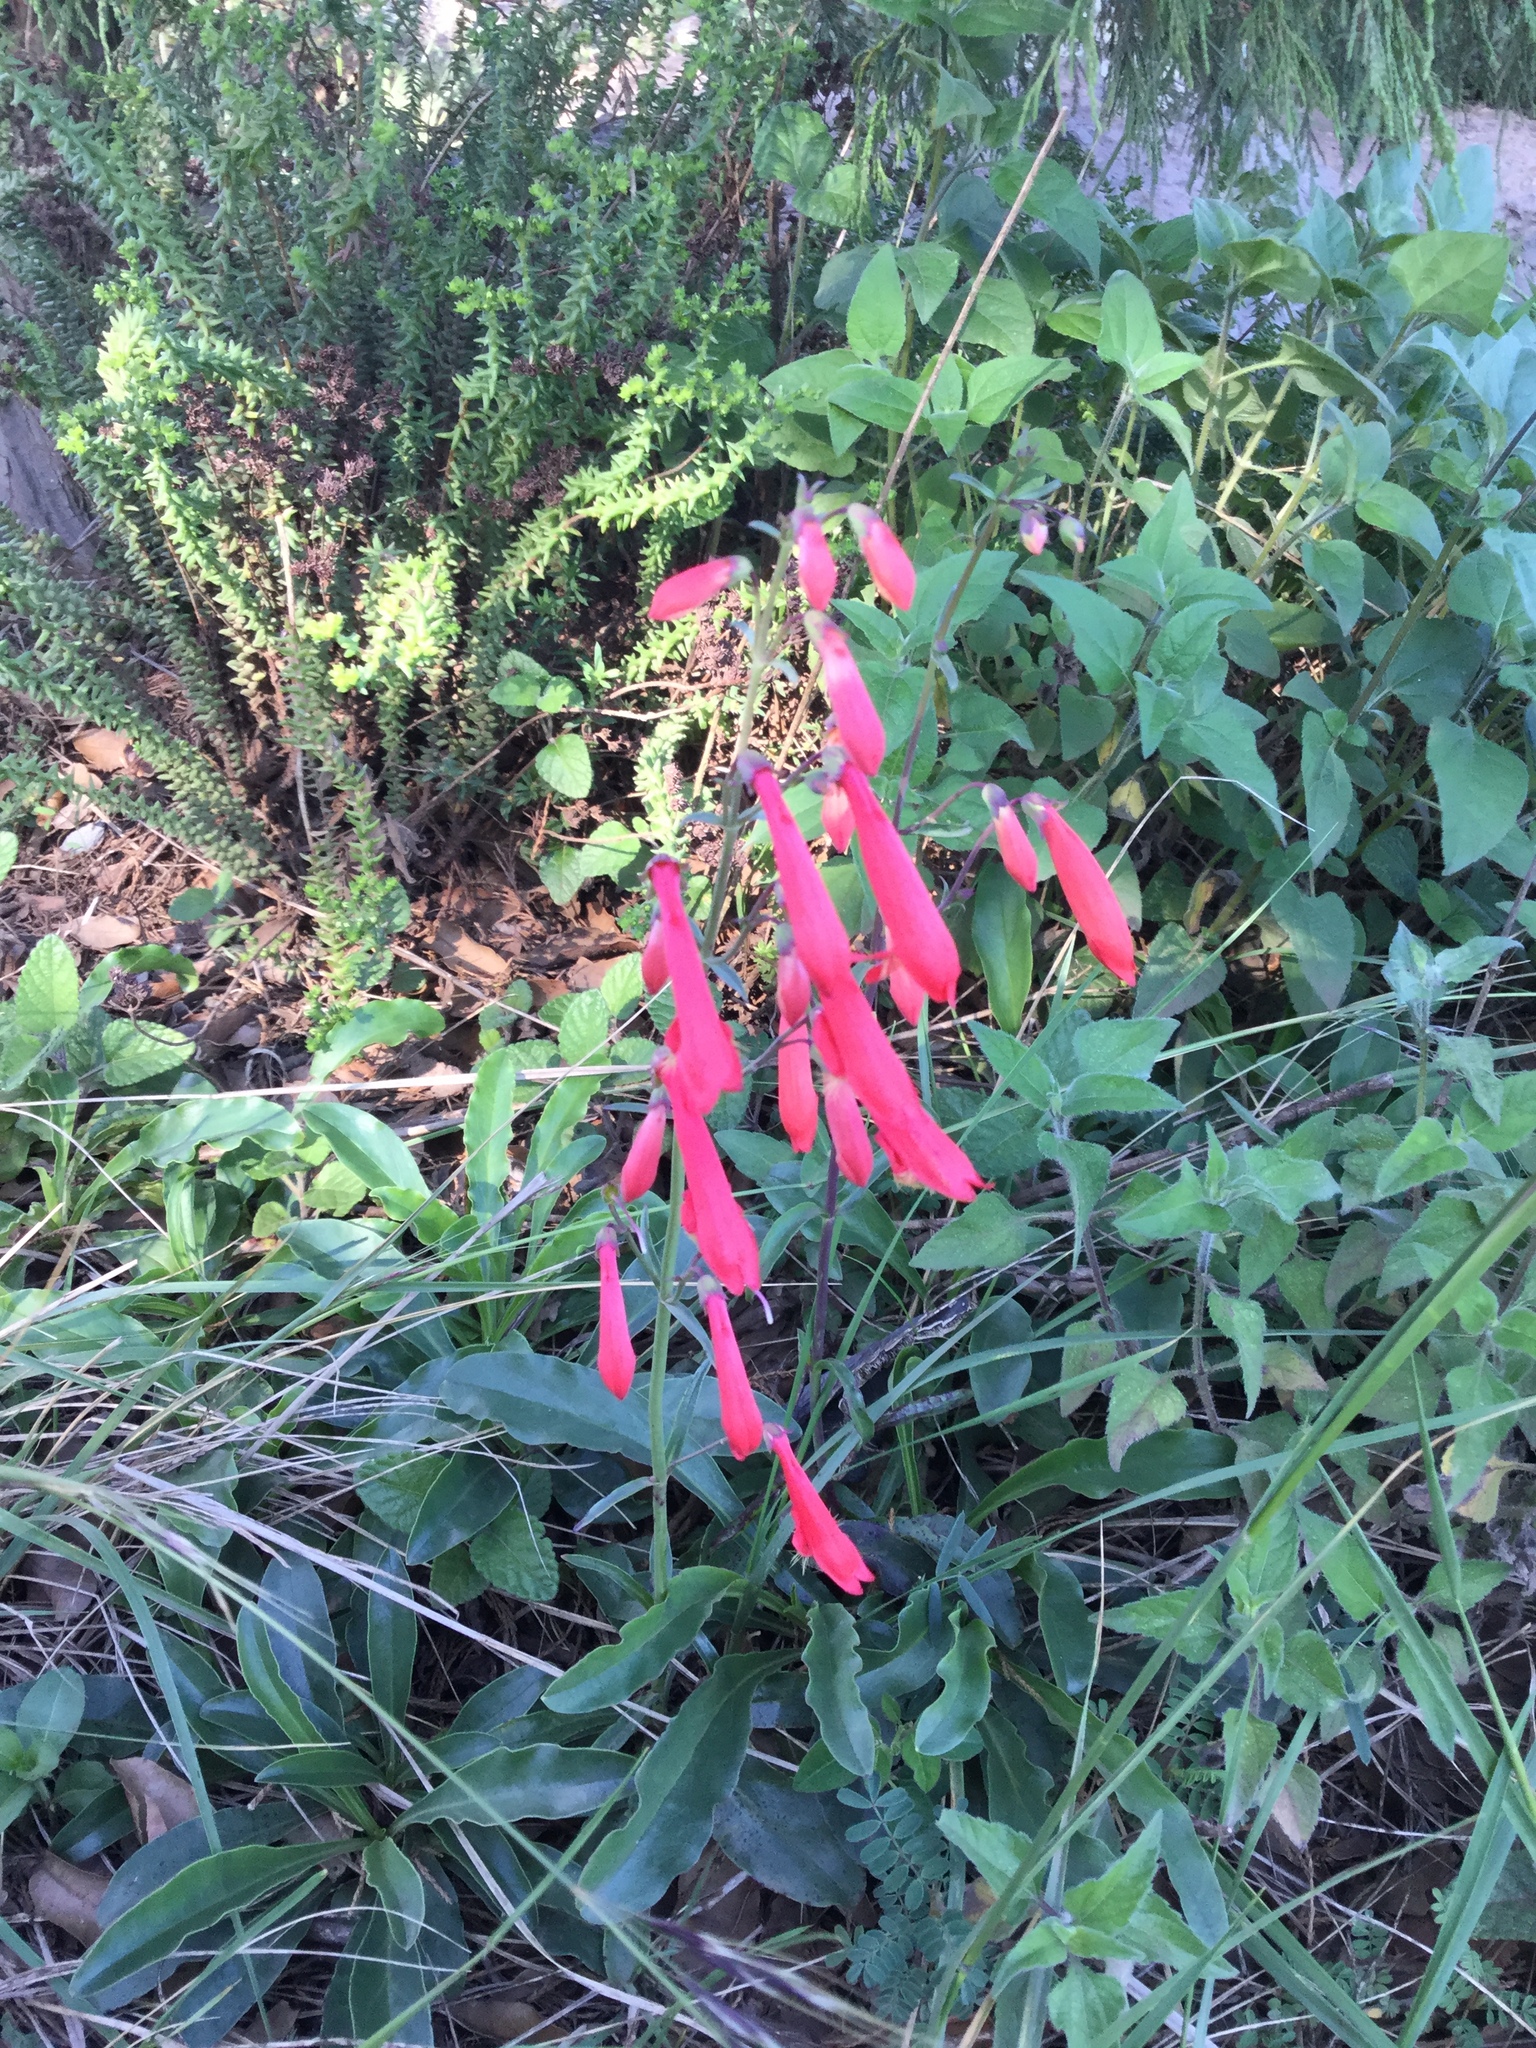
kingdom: Plantae
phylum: Tracheophyta
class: Magnoliopsida
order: Lamiales
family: Plantaginaceae
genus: Penstemon
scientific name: Penstemon barbatus
